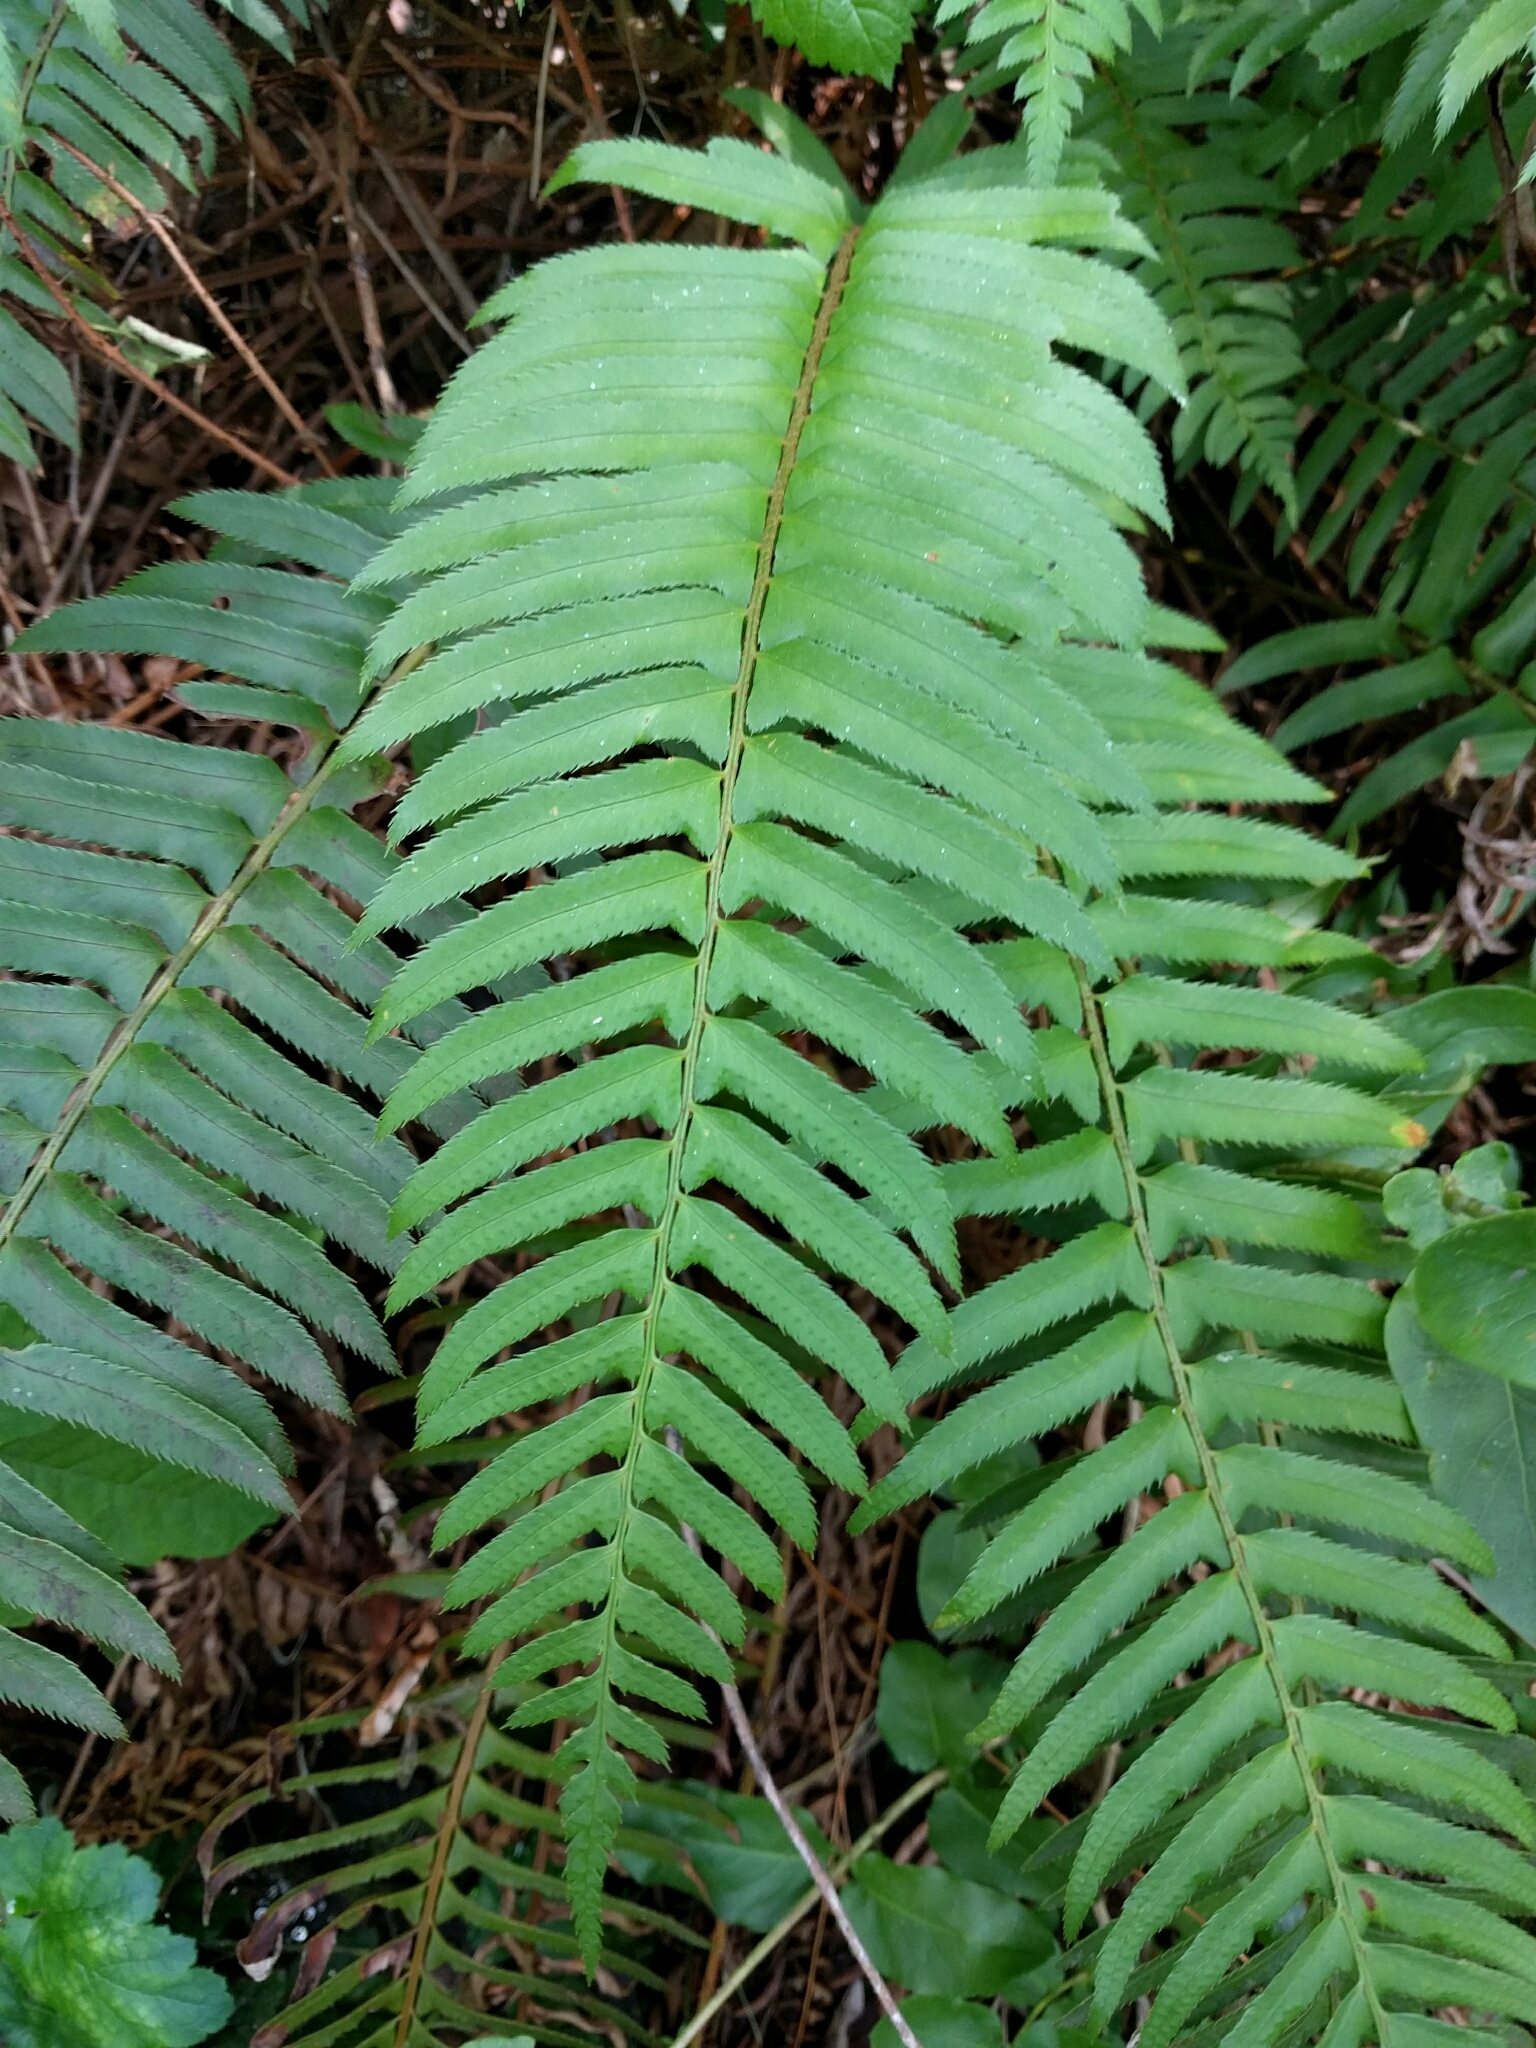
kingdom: Plantae
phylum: Tracheophyta
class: Polypodiopsida
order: Polypodiales
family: Dryopteridaceae
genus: Polystichum
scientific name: Polystichum munitum
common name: Western sword-fern
